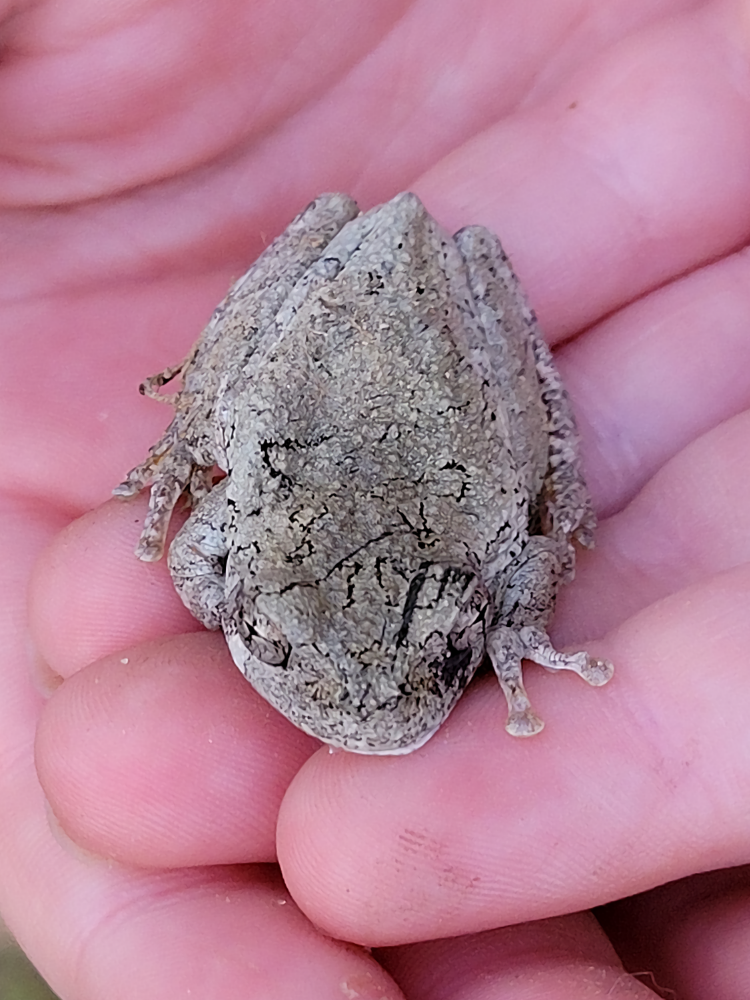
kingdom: Animalia
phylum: Chordata
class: Amphibia
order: Anura
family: Hylidae
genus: Dryophytes
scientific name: Dryophytes chrysoscelis
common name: Cope's gray treefrog
